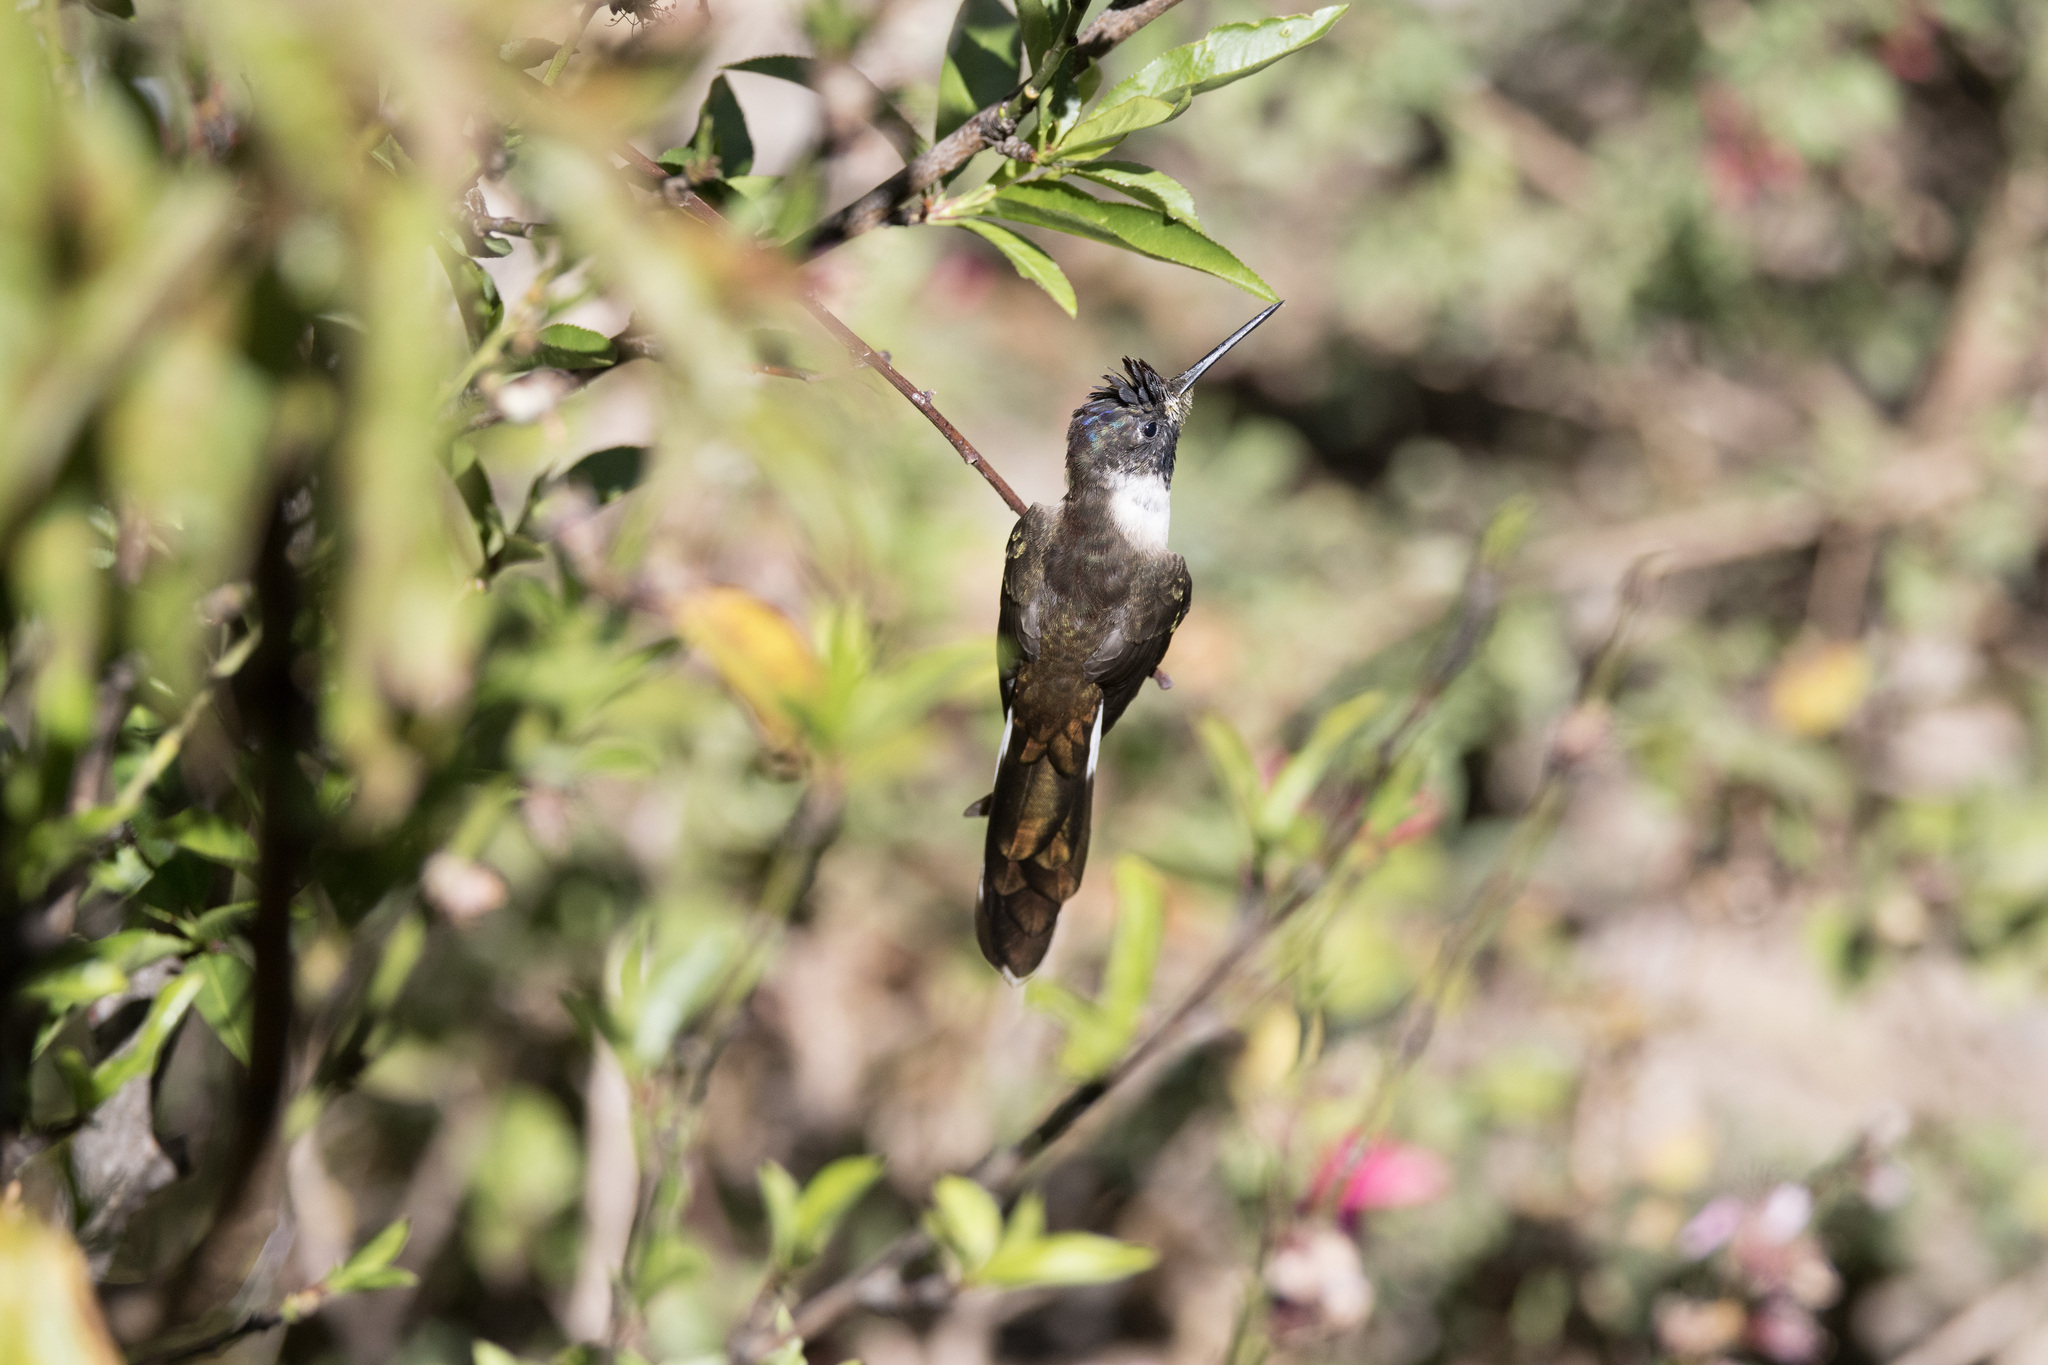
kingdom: Animalia
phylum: Chordata
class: Aves
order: Apodiformes
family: Trochilidae
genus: Oreonympha
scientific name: Oreonympha nobilis
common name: Bearded mountaineer
